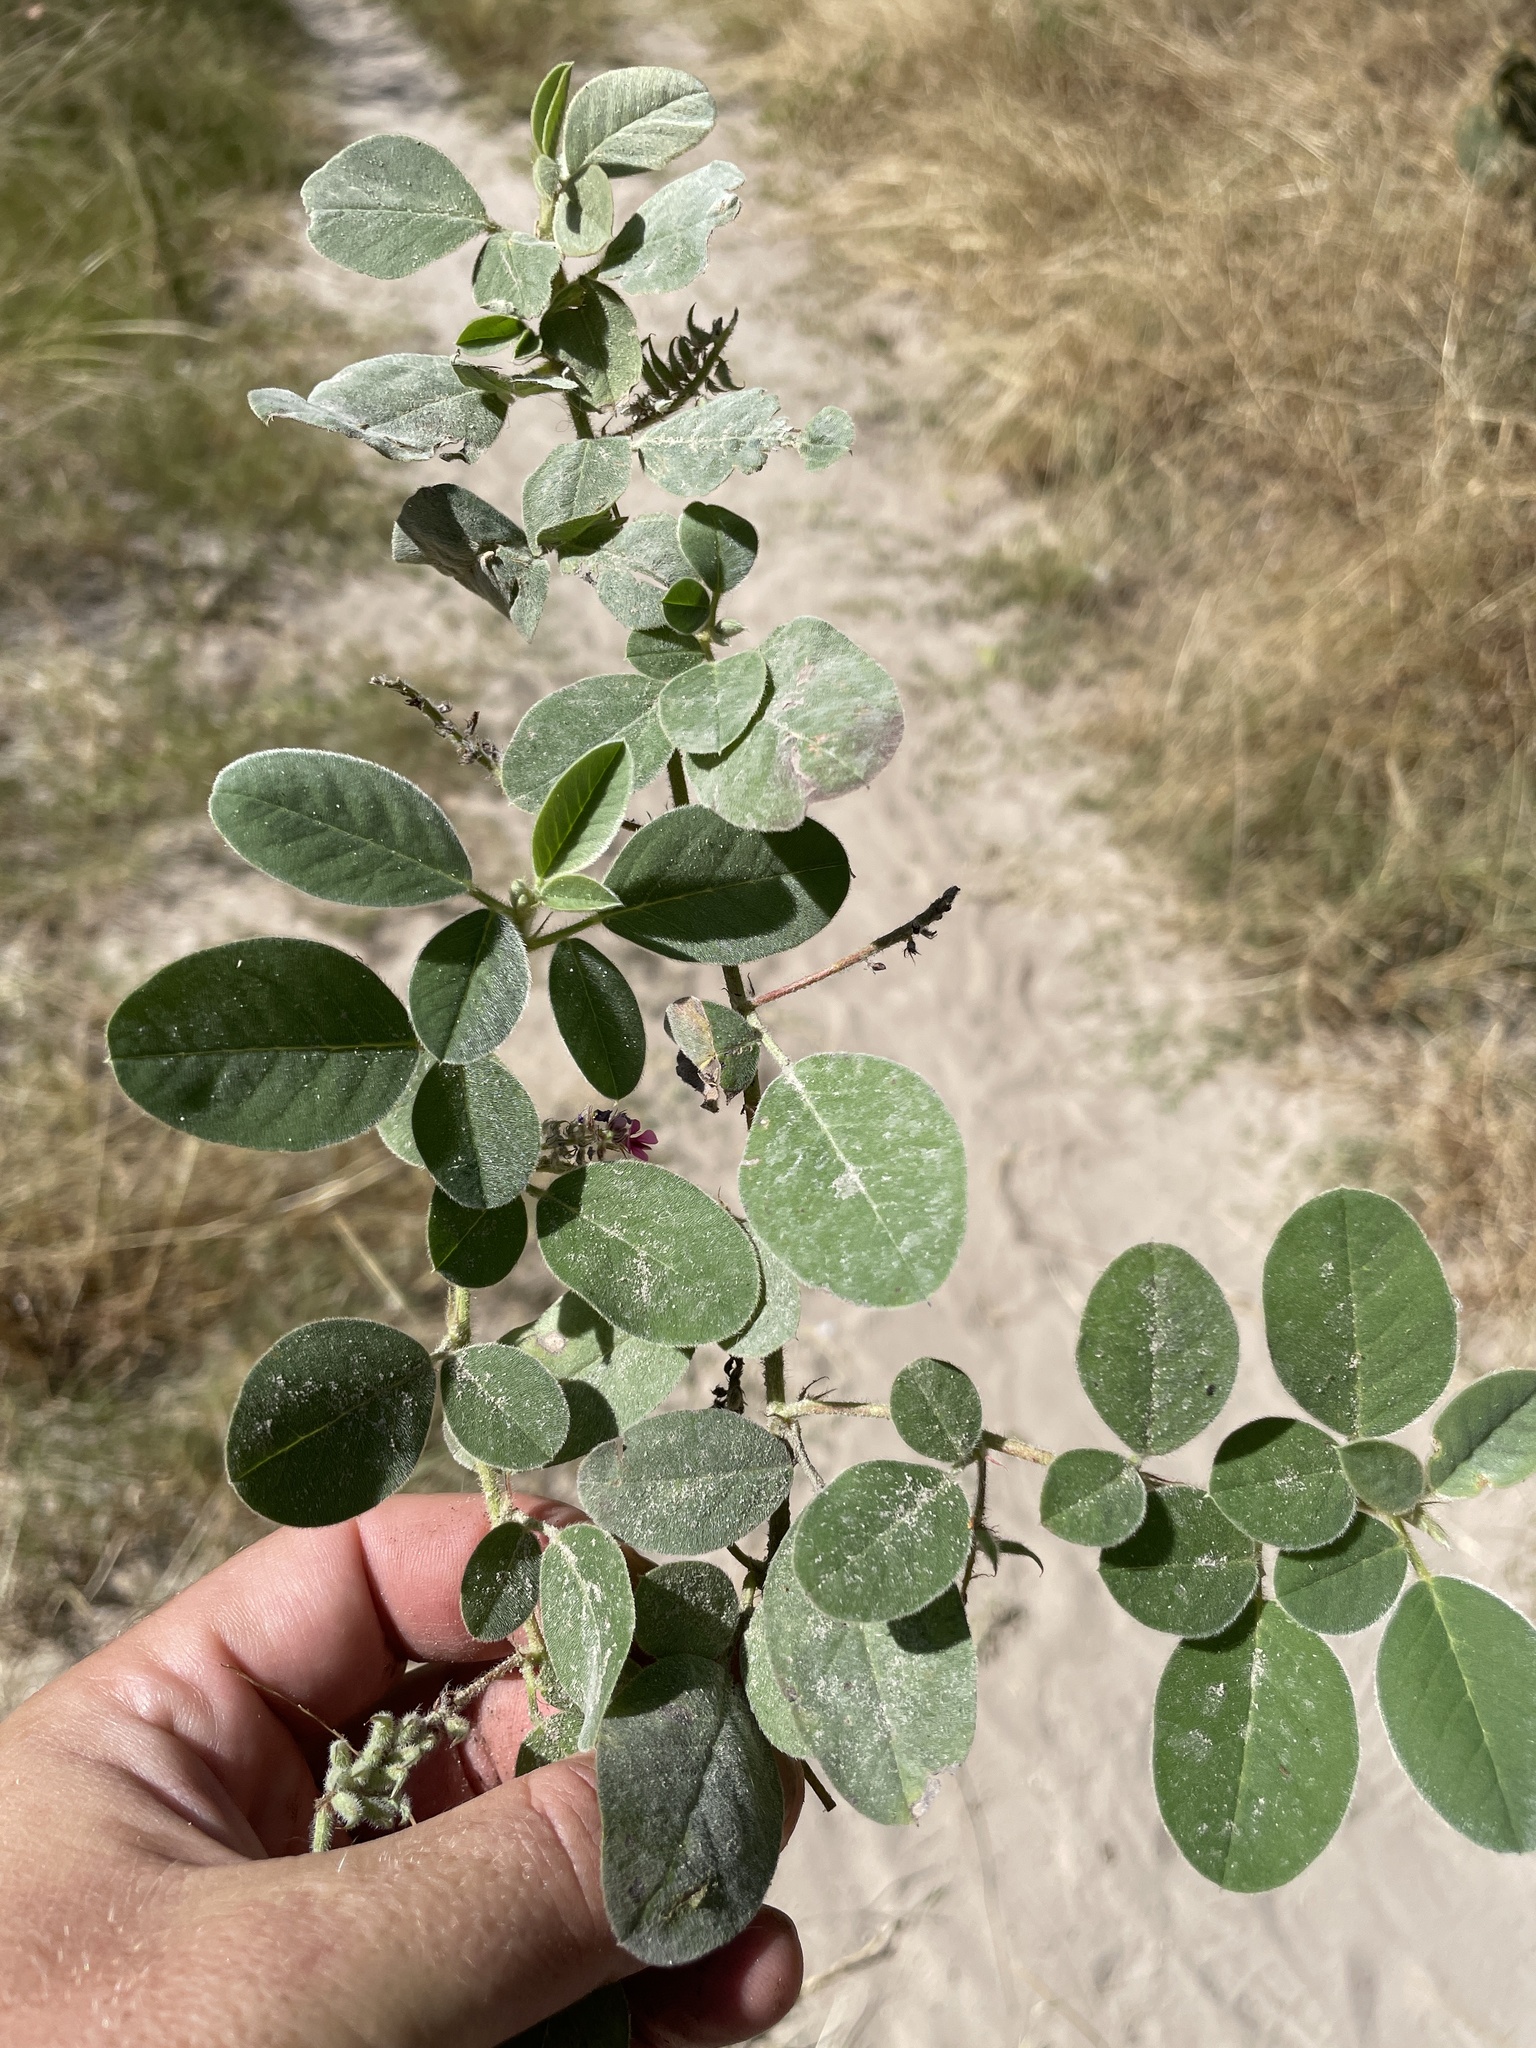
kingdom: Plantae
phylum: Tracheophyta
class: Magnoliopsida
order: Fabales
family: Fabaceae
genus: Indigofera
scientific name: Indigofera flavicans
